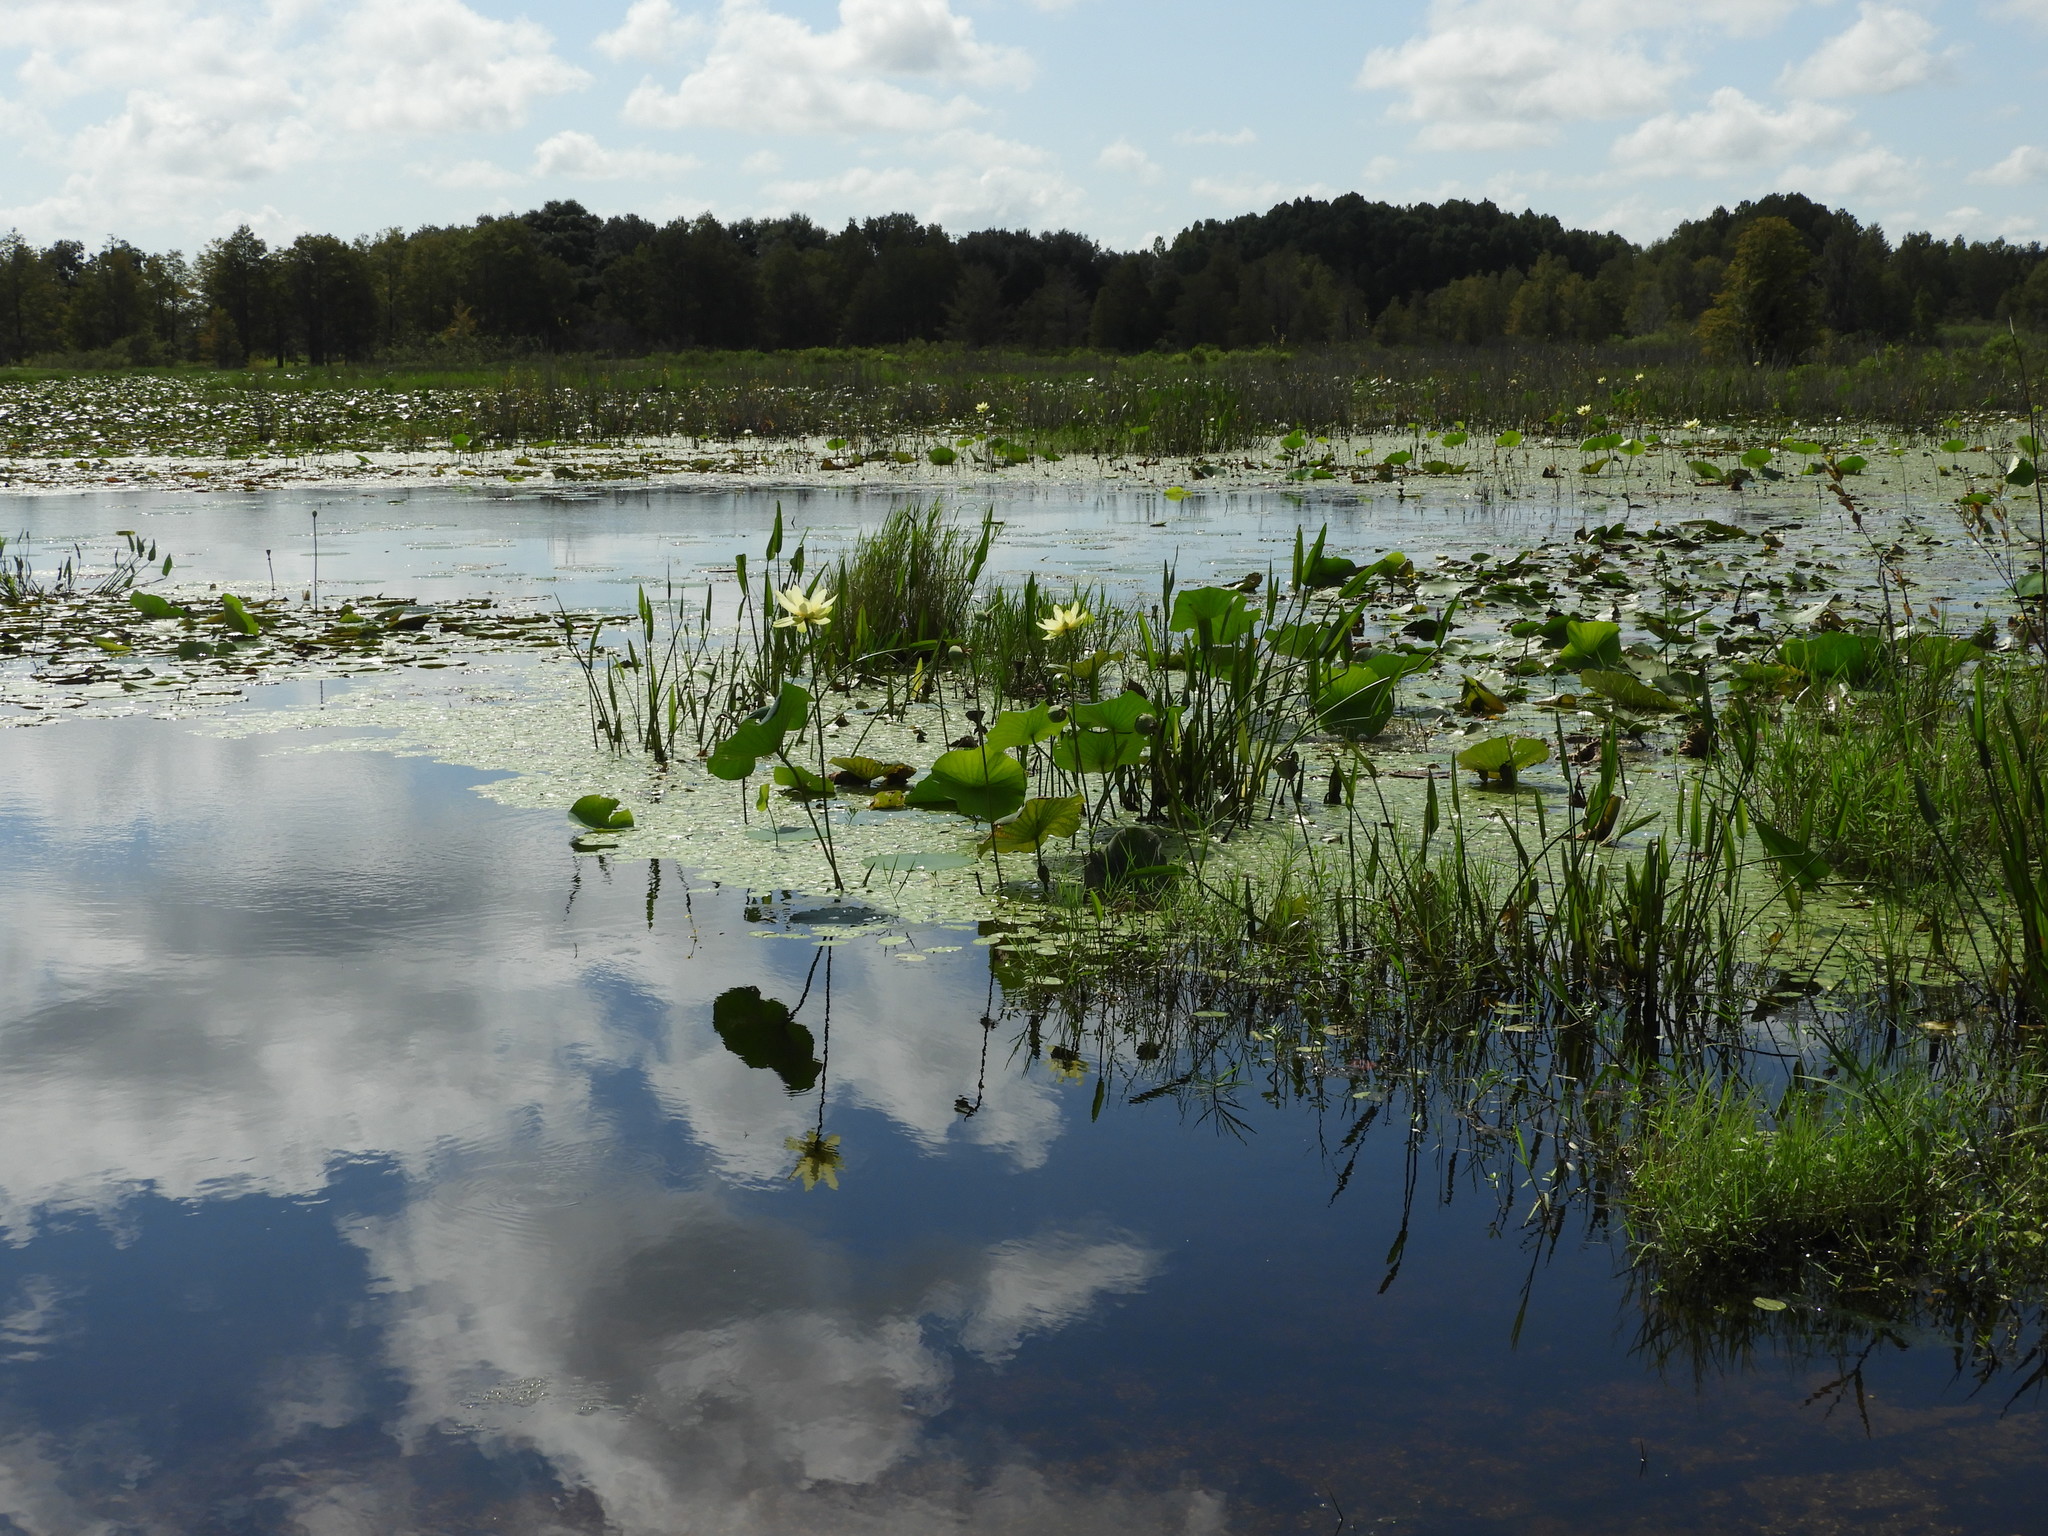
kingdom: Plantae
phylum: Tracheophyta
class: Magnoliopsida
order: Proteales
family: Nelumbonaceae
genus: Nelumbo
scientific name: Nelumbo lutea
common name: American lotus
